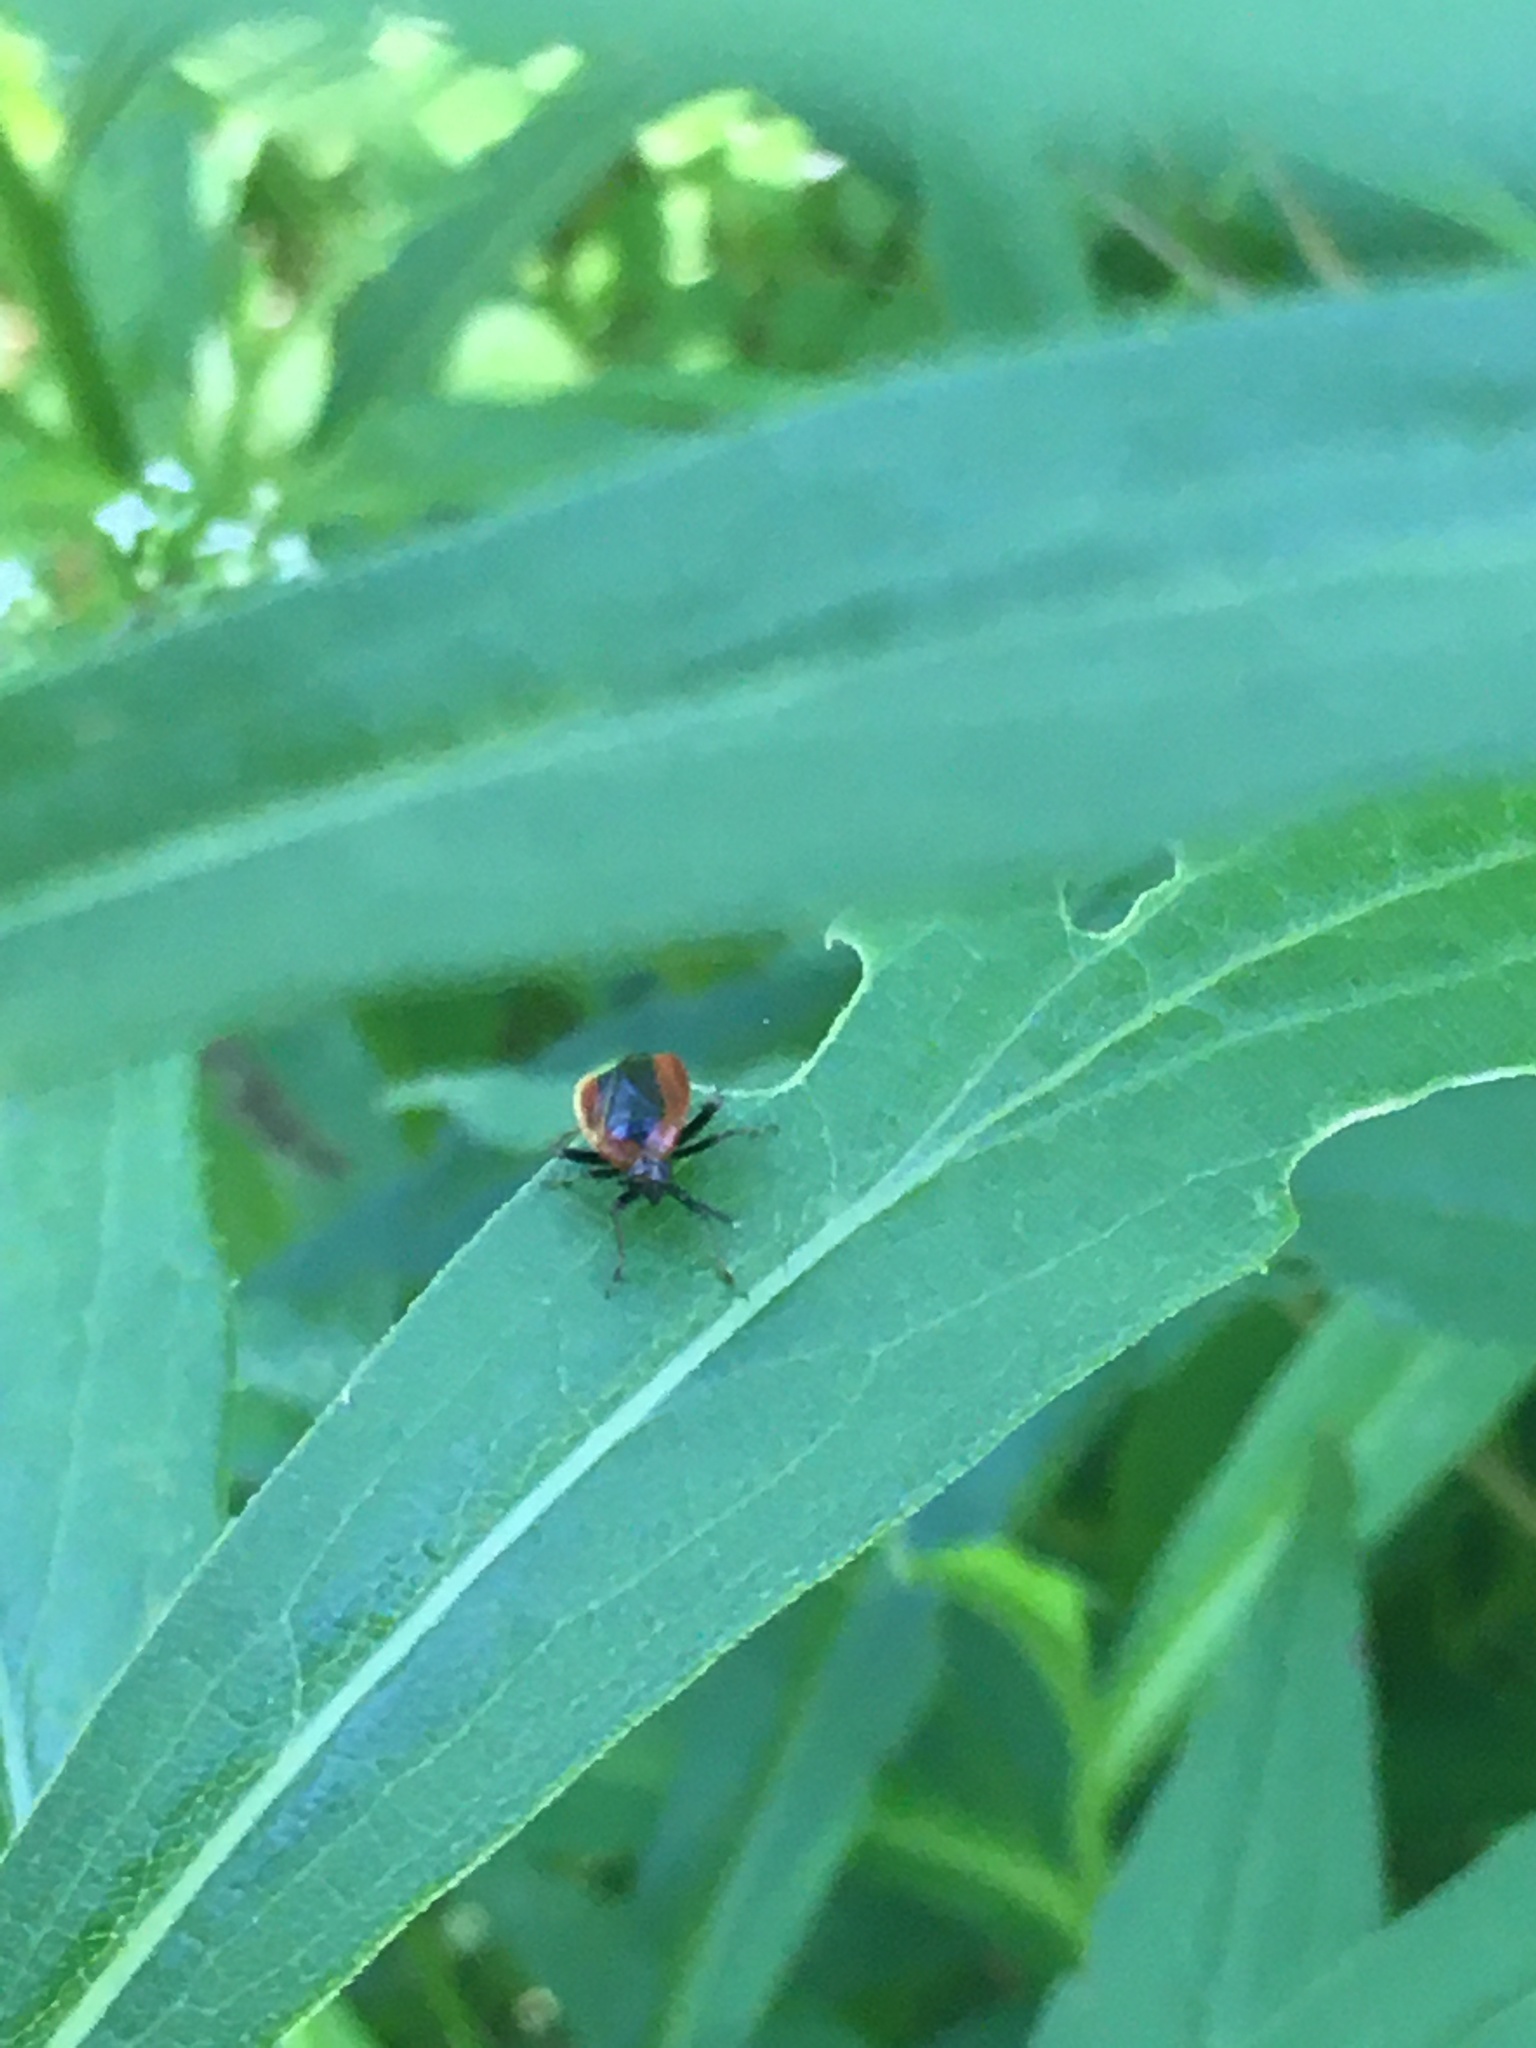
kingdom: Animalia
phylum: Arthropoda
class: Insecta
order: Hemiptera
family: Miridae
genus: Metriorrhynchomiris
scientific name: Metriorrhynchomiris dislocatus
